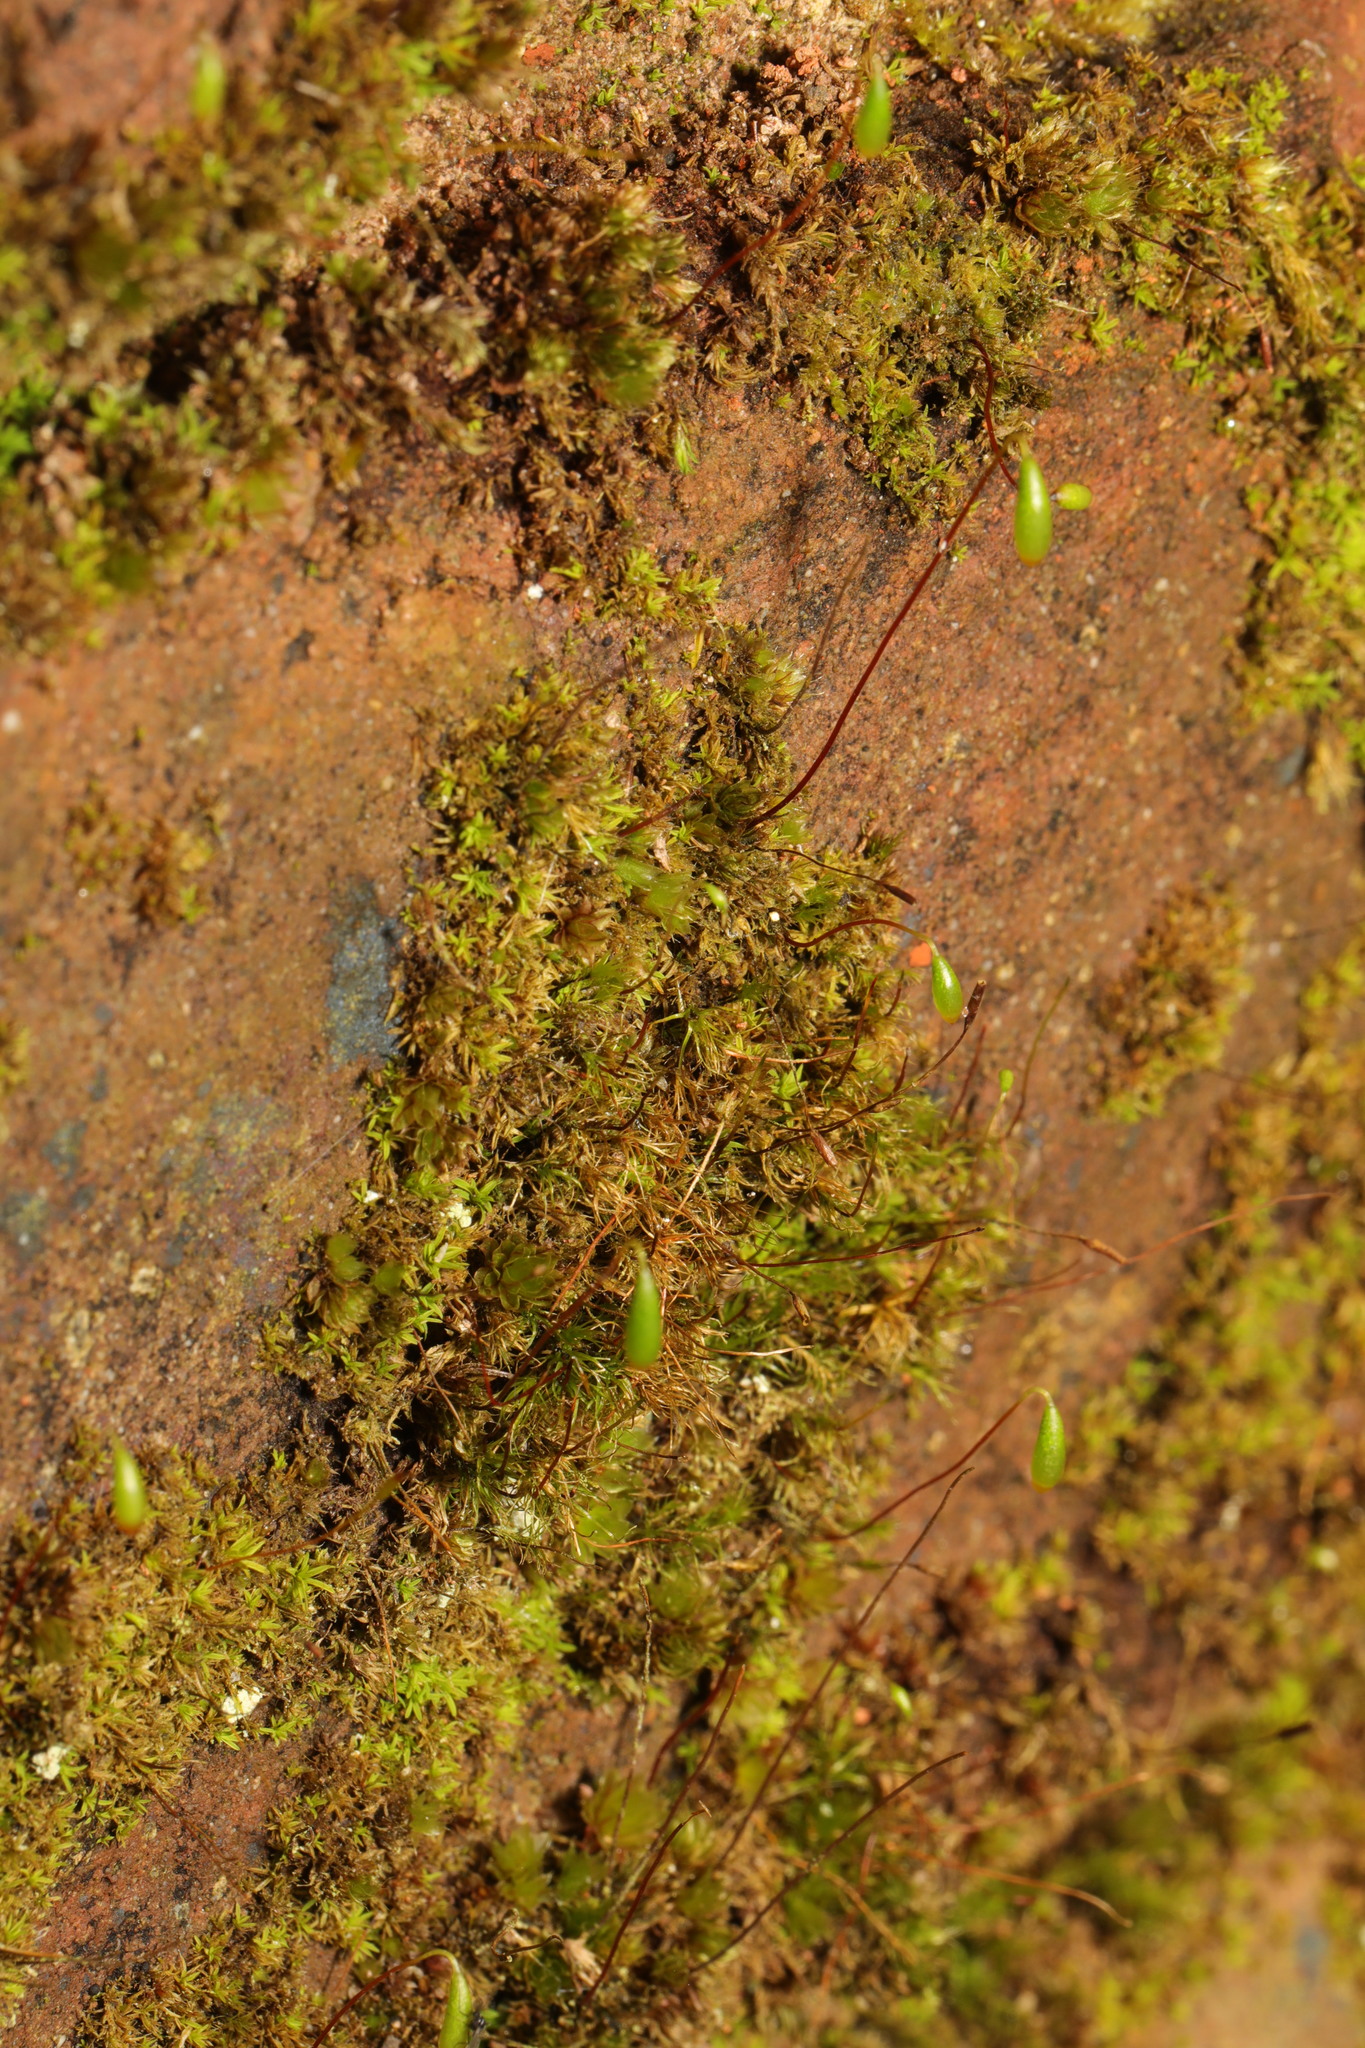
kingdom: Plantae
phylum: Bryophyta
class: Bryopsida
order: Bryales
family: Bryaceae
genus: Rosulabryum
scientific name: Rosulabryum capillare
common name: Capillary thread-moss
